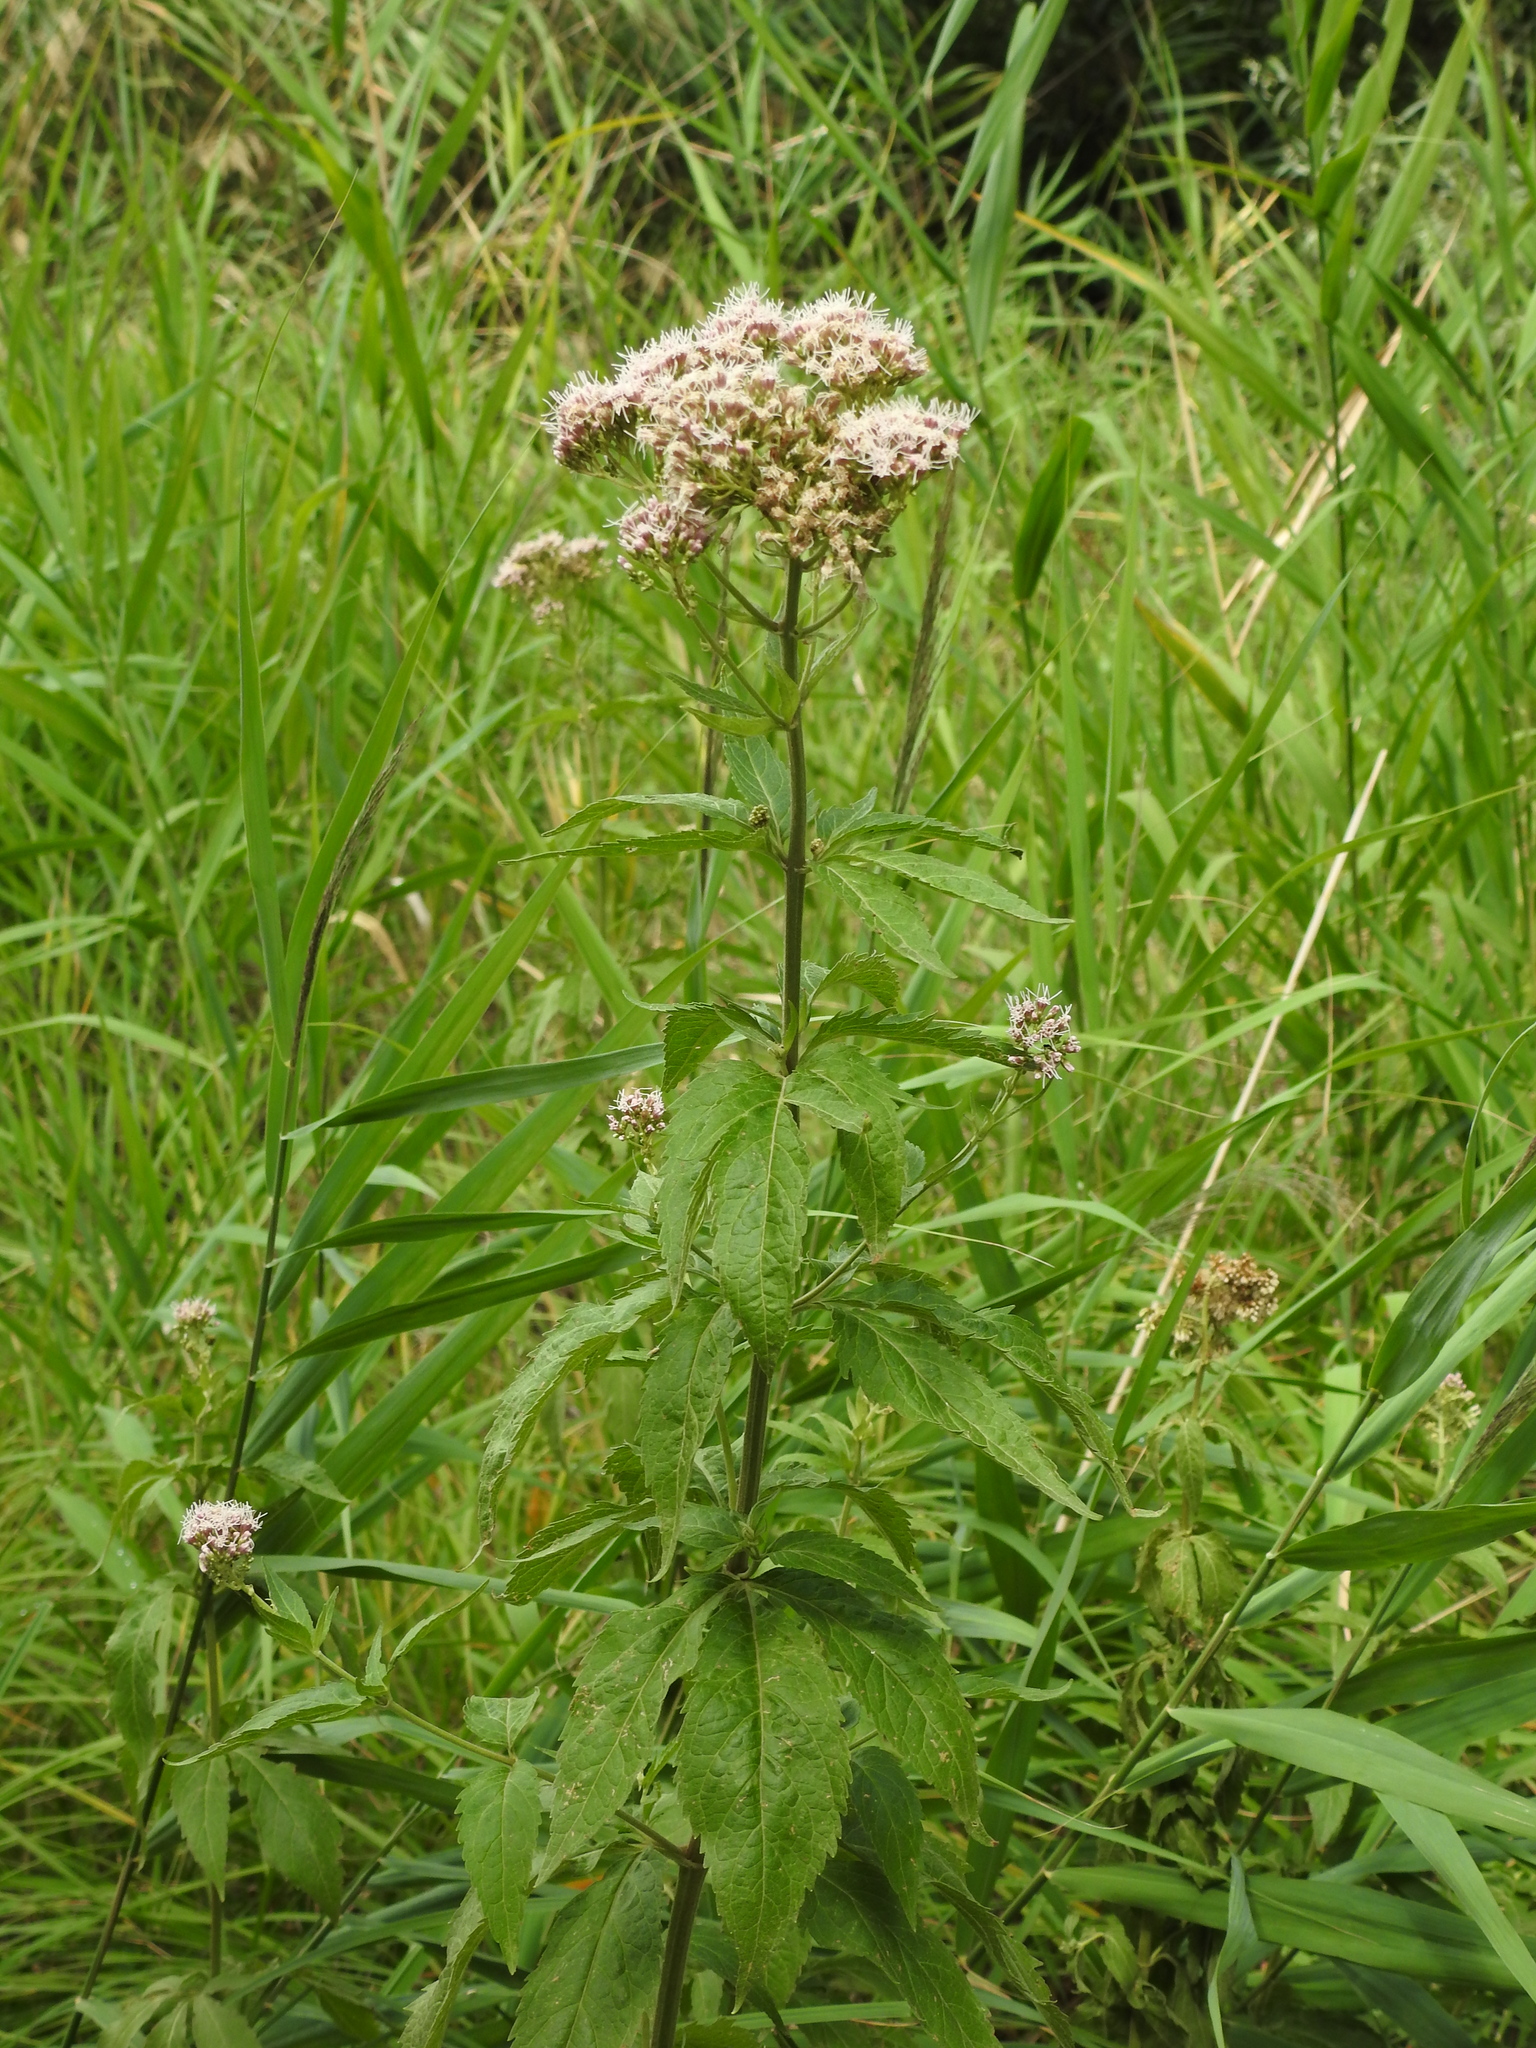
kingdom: Plantae
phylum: Tracheophyta
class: Magnoliopsida
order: Asterales
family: Asteraceae
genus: Eupatorium
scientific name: Eupatorium cannabinum
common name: Hemp-agrimony
